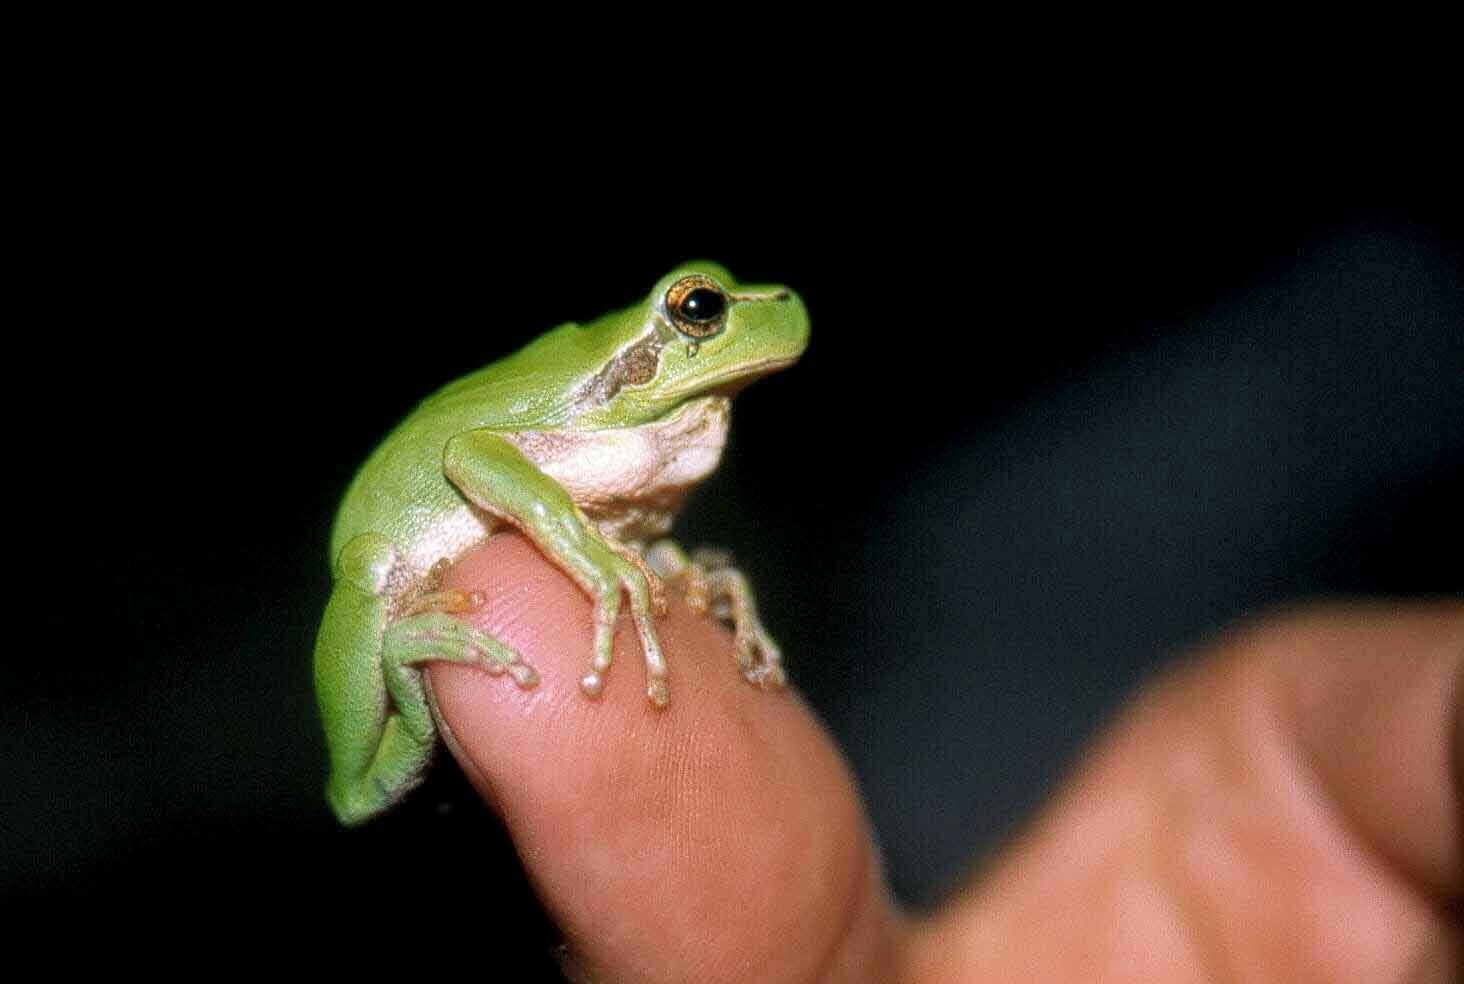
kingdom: Animalia
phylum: Chordata
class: Amphibia
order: Anura
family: Hylidae
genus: Hyla
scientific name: Hyla meridionalis
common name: Stripeless tree frog
